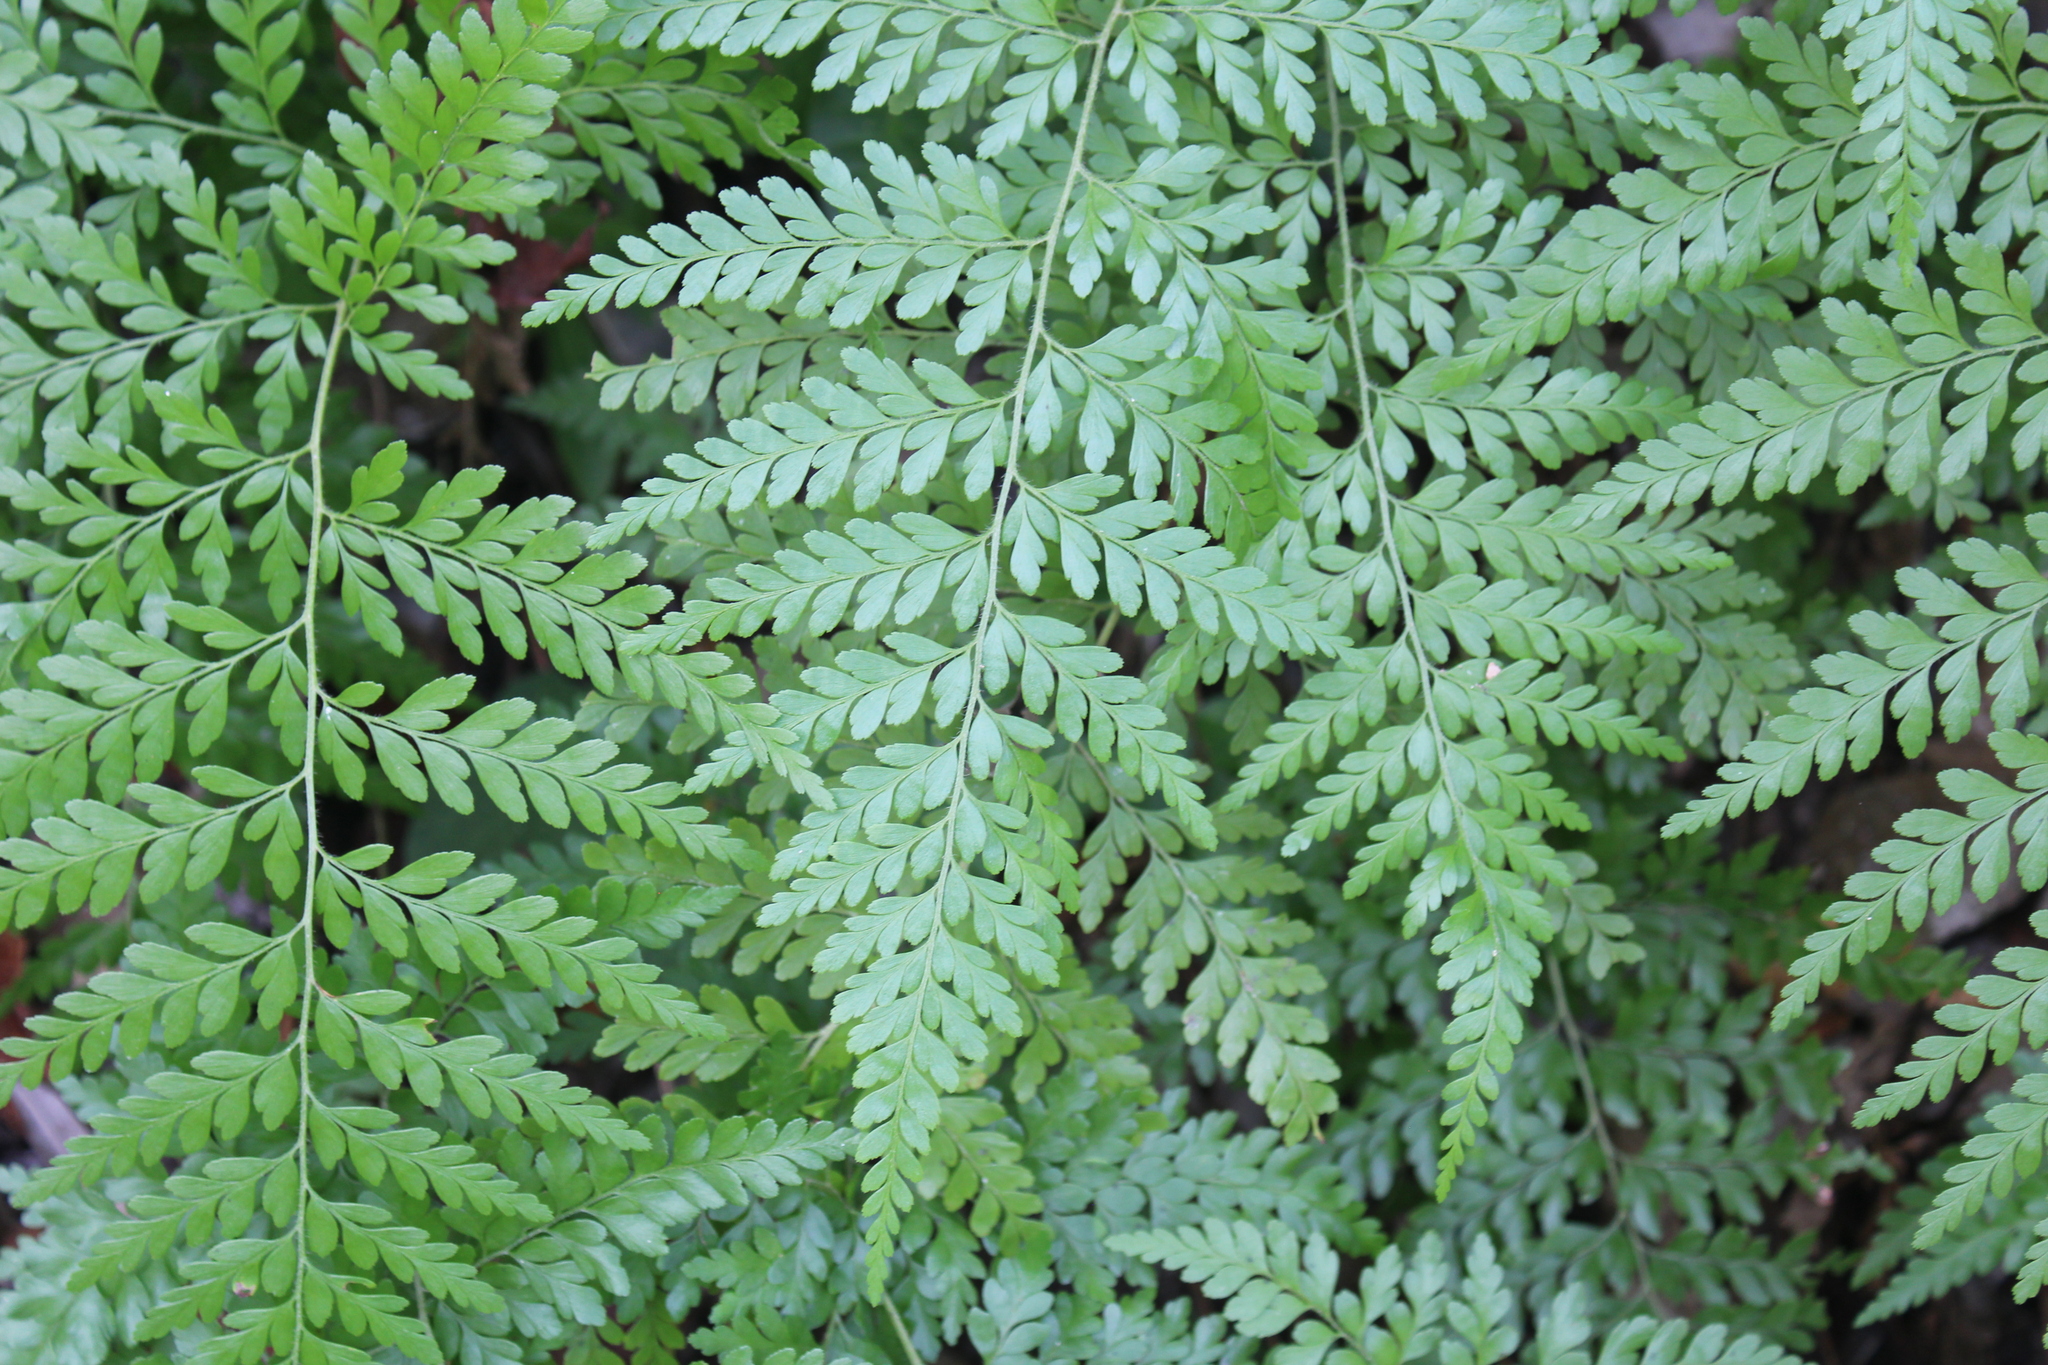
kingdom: Plantae
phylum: Tracheophyta
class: Polypodiopsida
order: Schizaeales
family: Anemiaceae
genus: Anemia
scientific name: Anemia adiantifolia
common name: Pine fern
